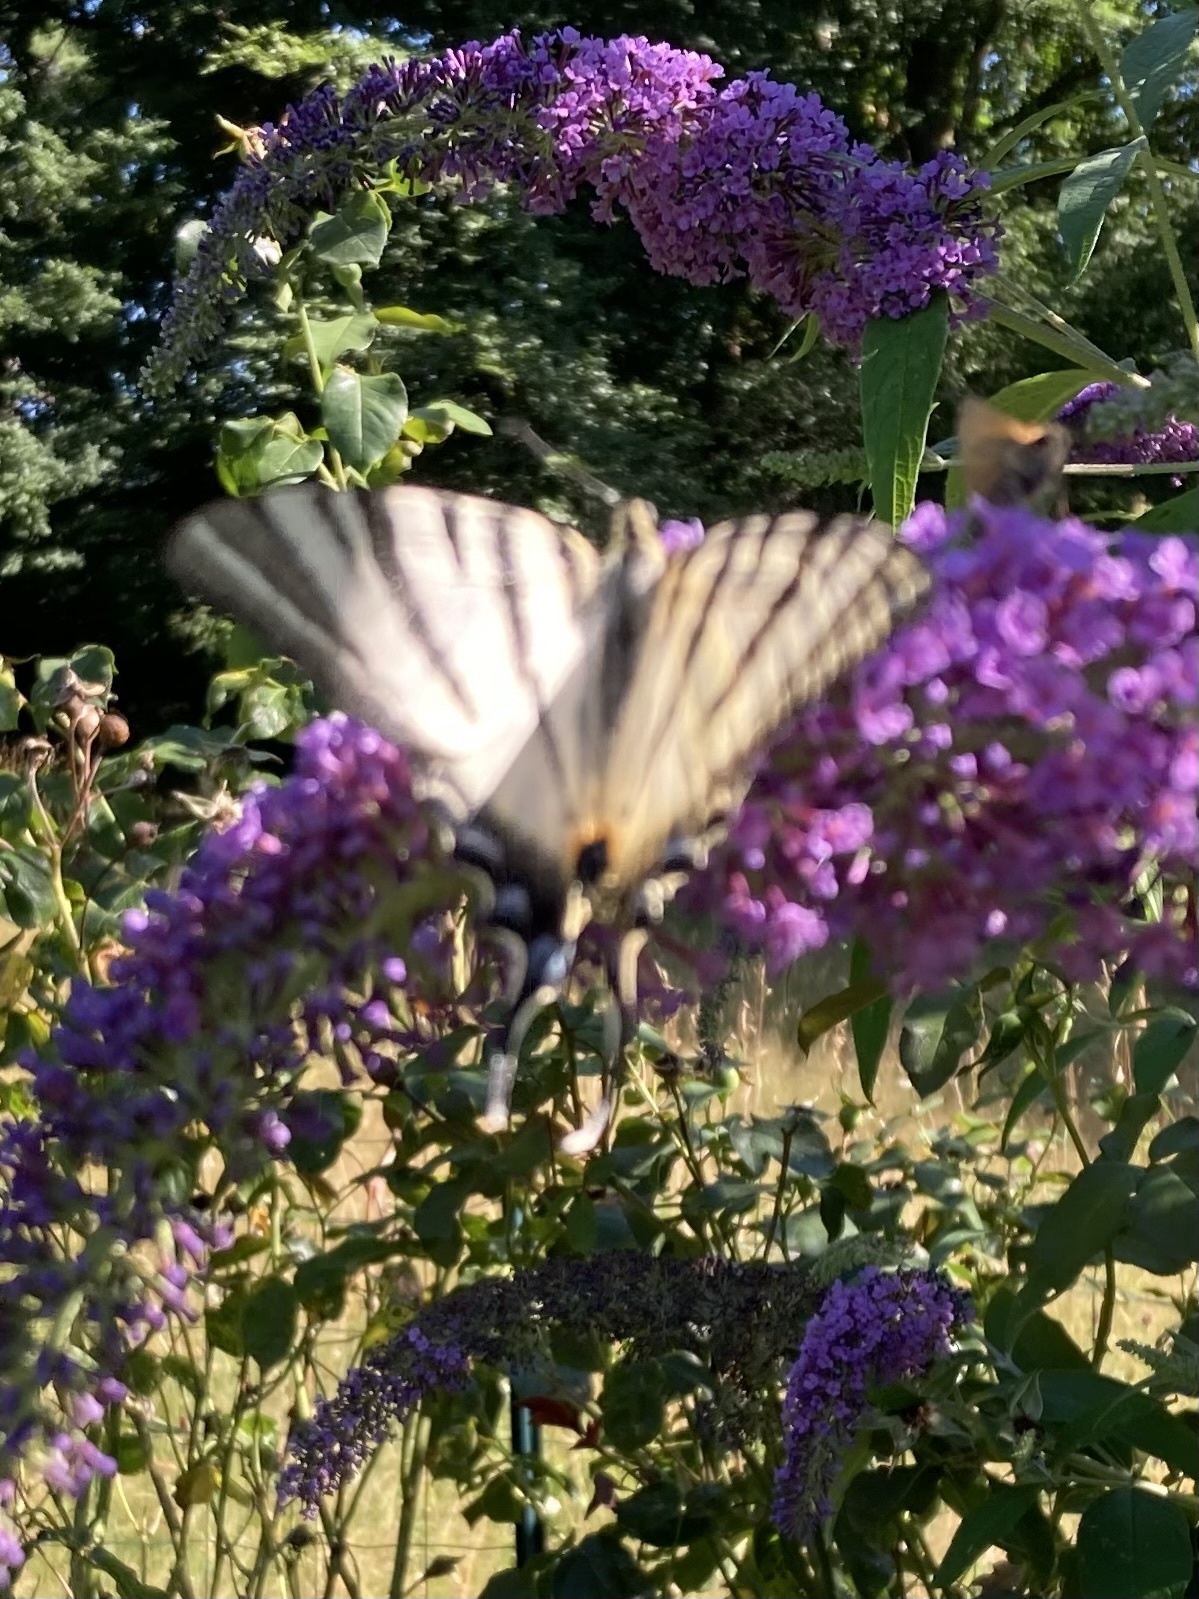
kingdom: Animalia
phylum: Arthropoda
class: Insecta
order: Lepidoptera
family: Papilionidae
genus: Iphiclides
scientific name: Iphiclides podalirius
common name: Scarce swallowtail
